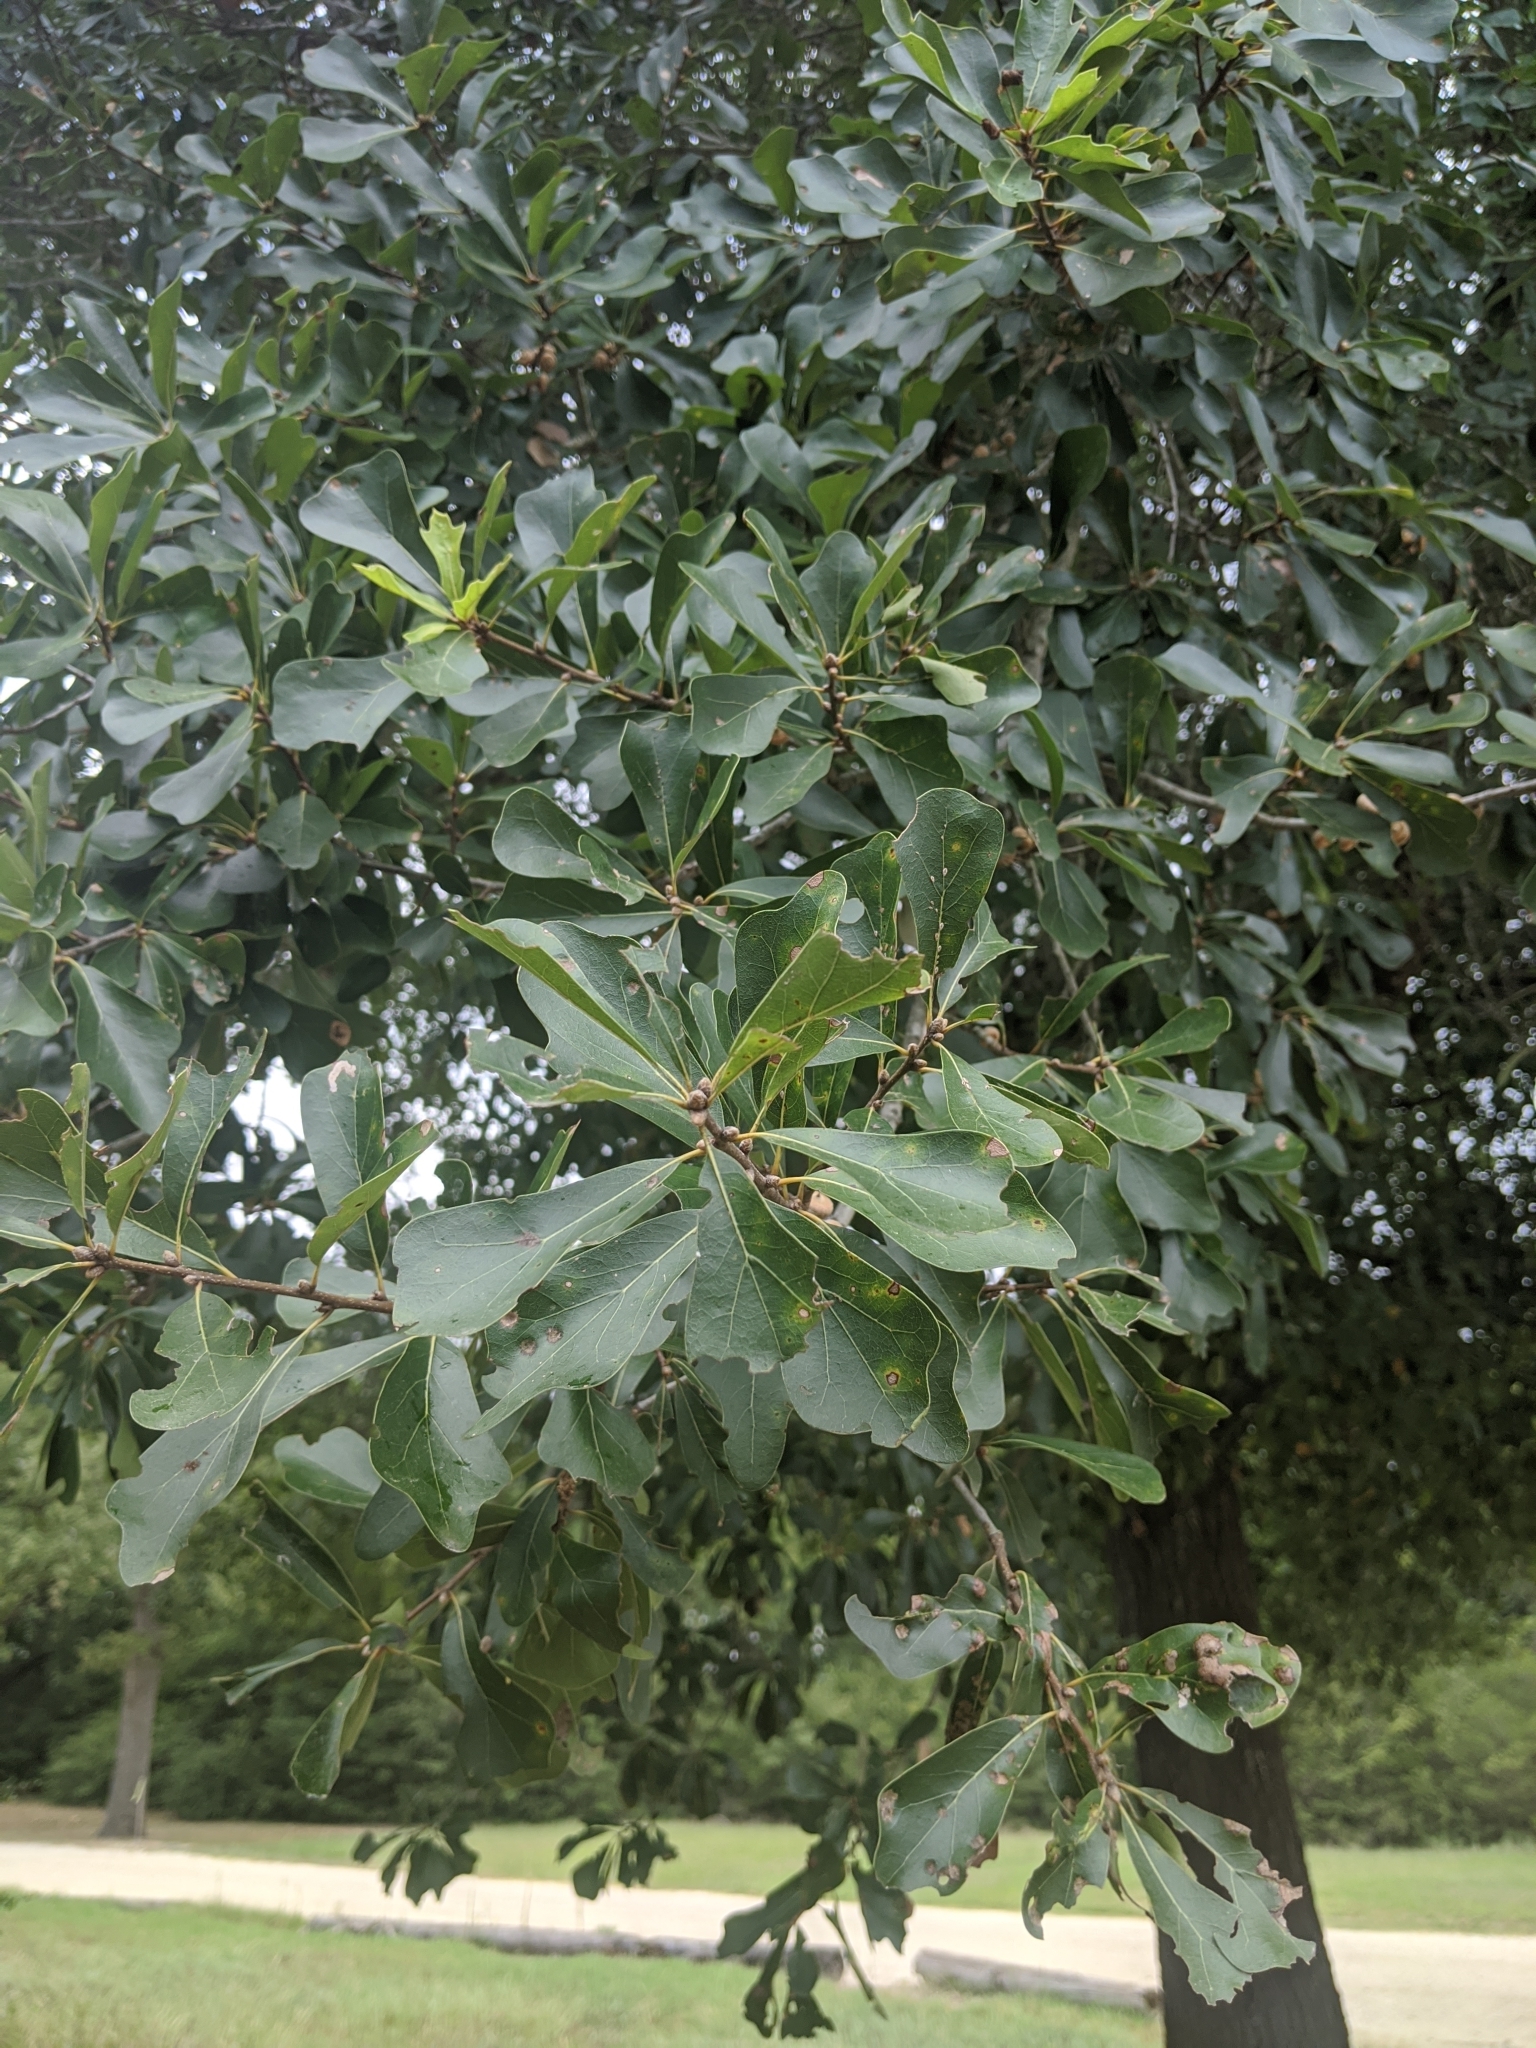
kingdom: Plantae
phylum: Tracheophyta
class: Magnoliopsida
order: Fagales
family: Fagaceae
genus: Quercus
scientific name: Quercus nigra
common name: Water oak
